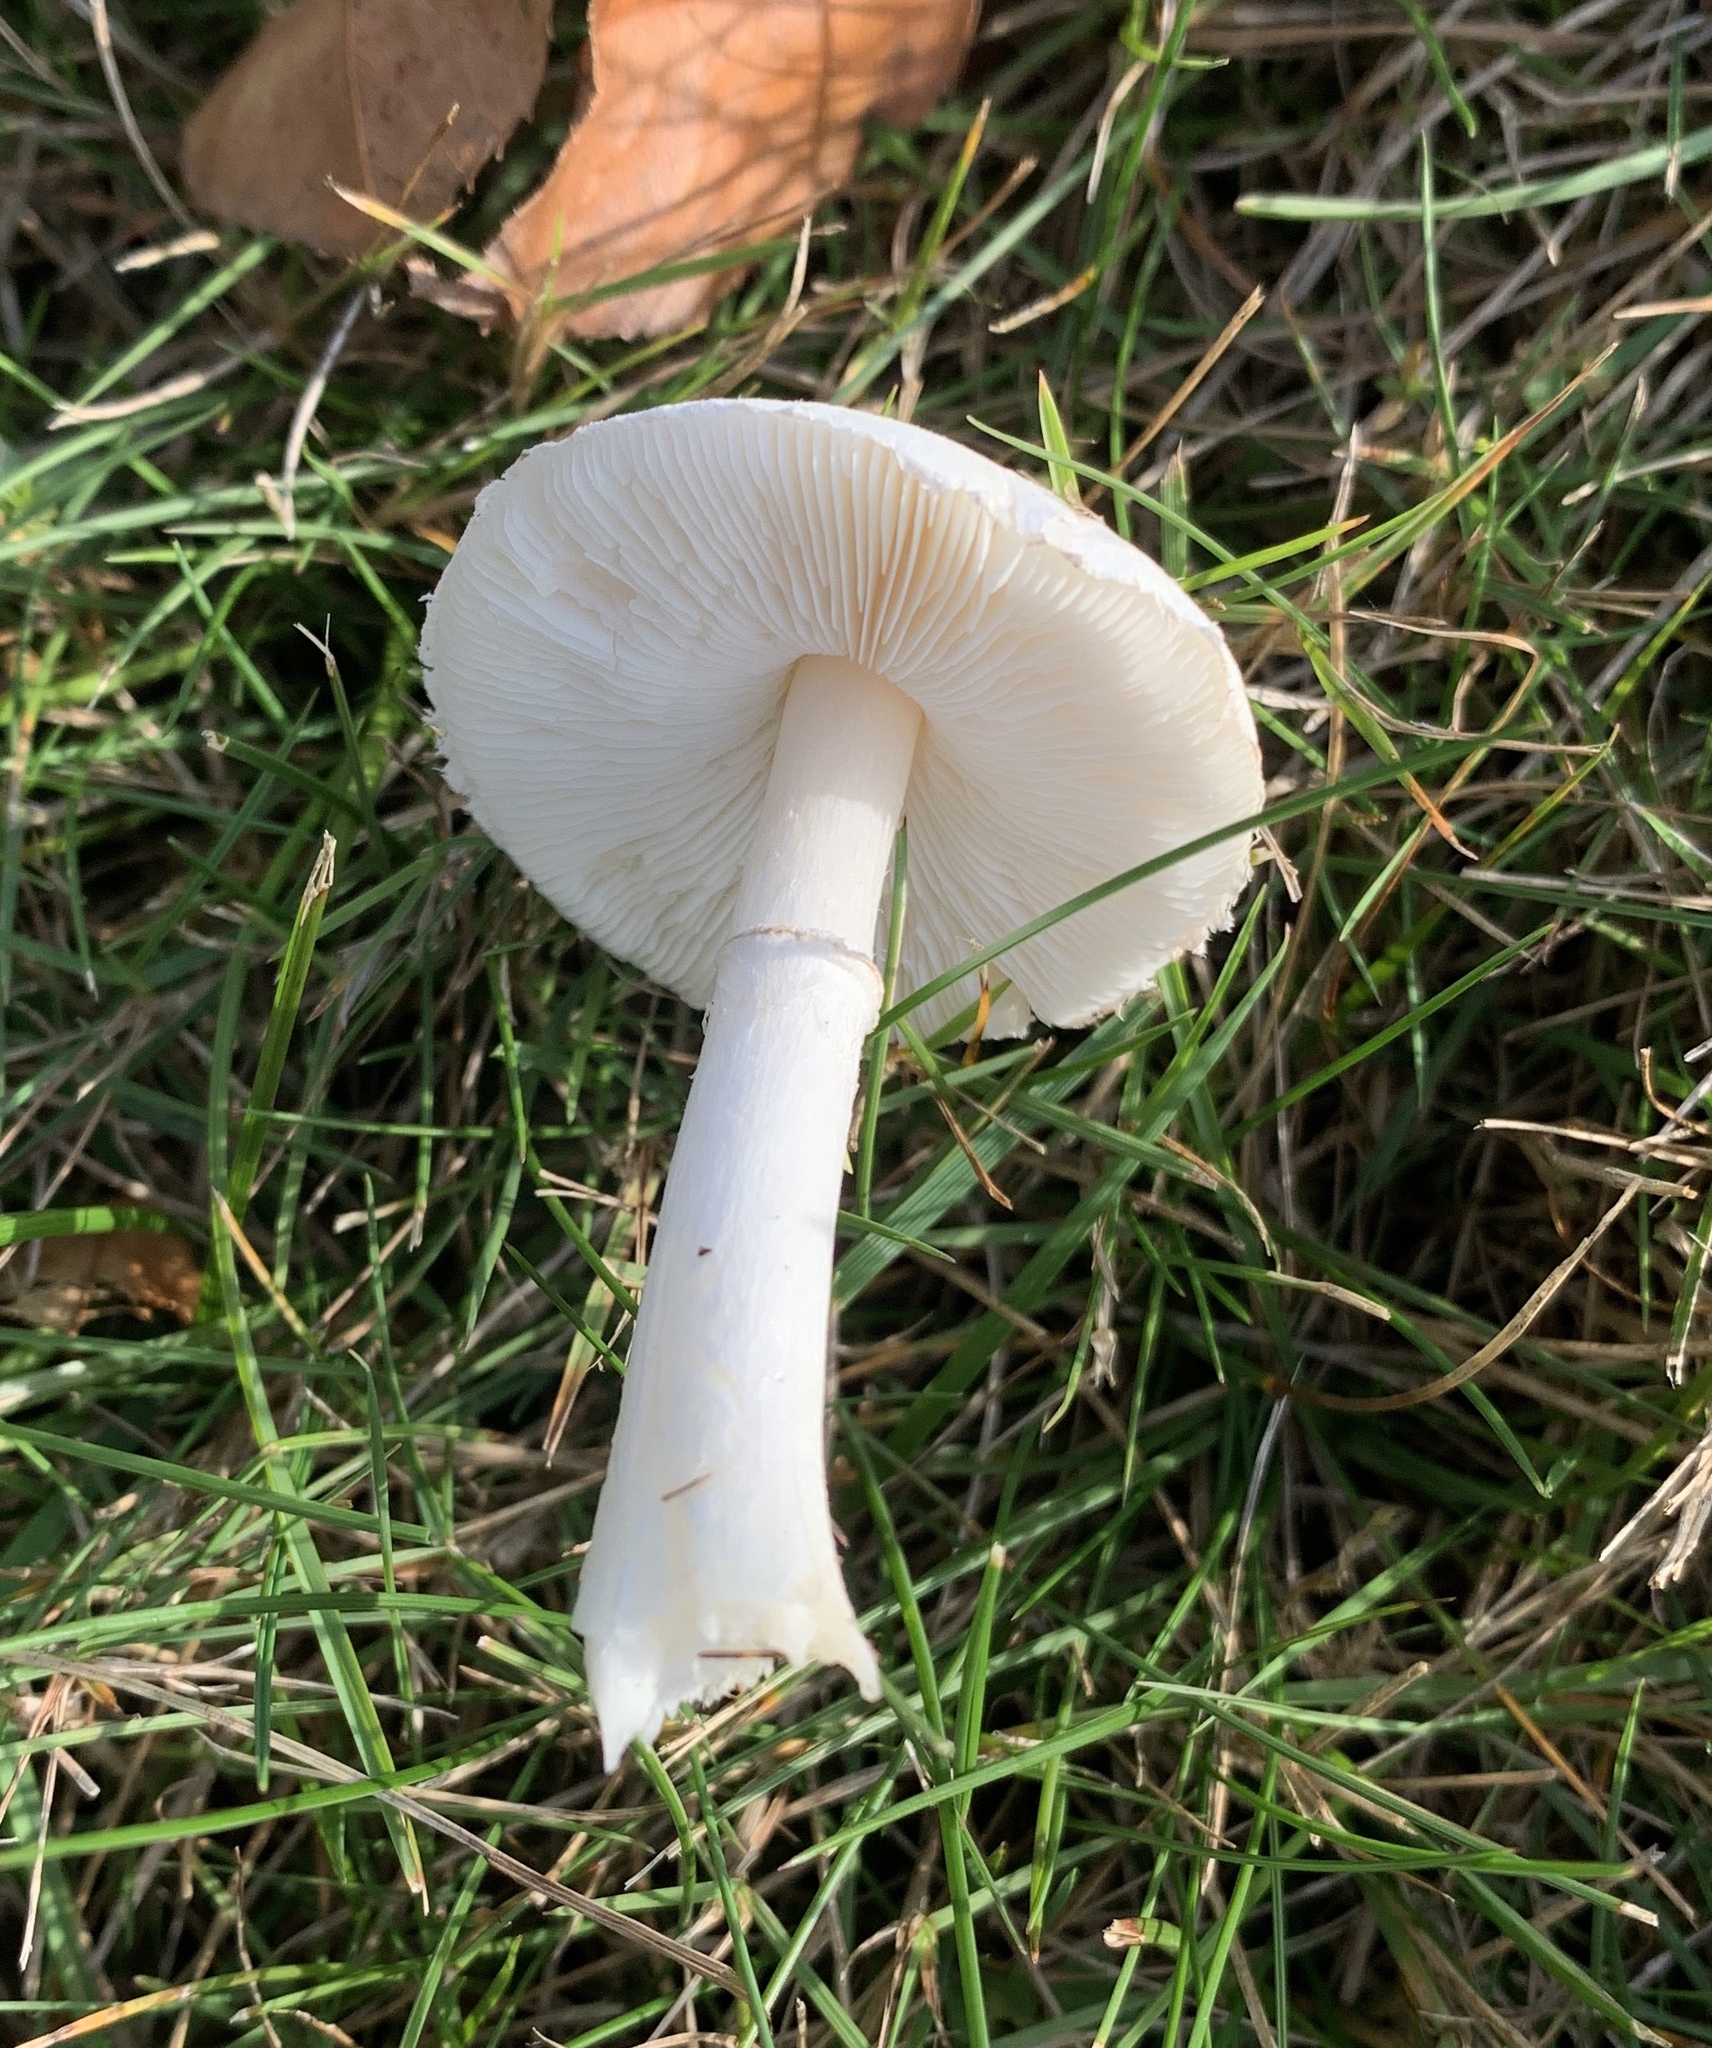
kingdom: Fungi
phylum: Basidiomycota
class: Agaricomycetes
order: Agaricales
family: Agaricaceae
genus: Leucoagaricus
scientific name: Leucoagaricus leucothites
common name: White dapperling
